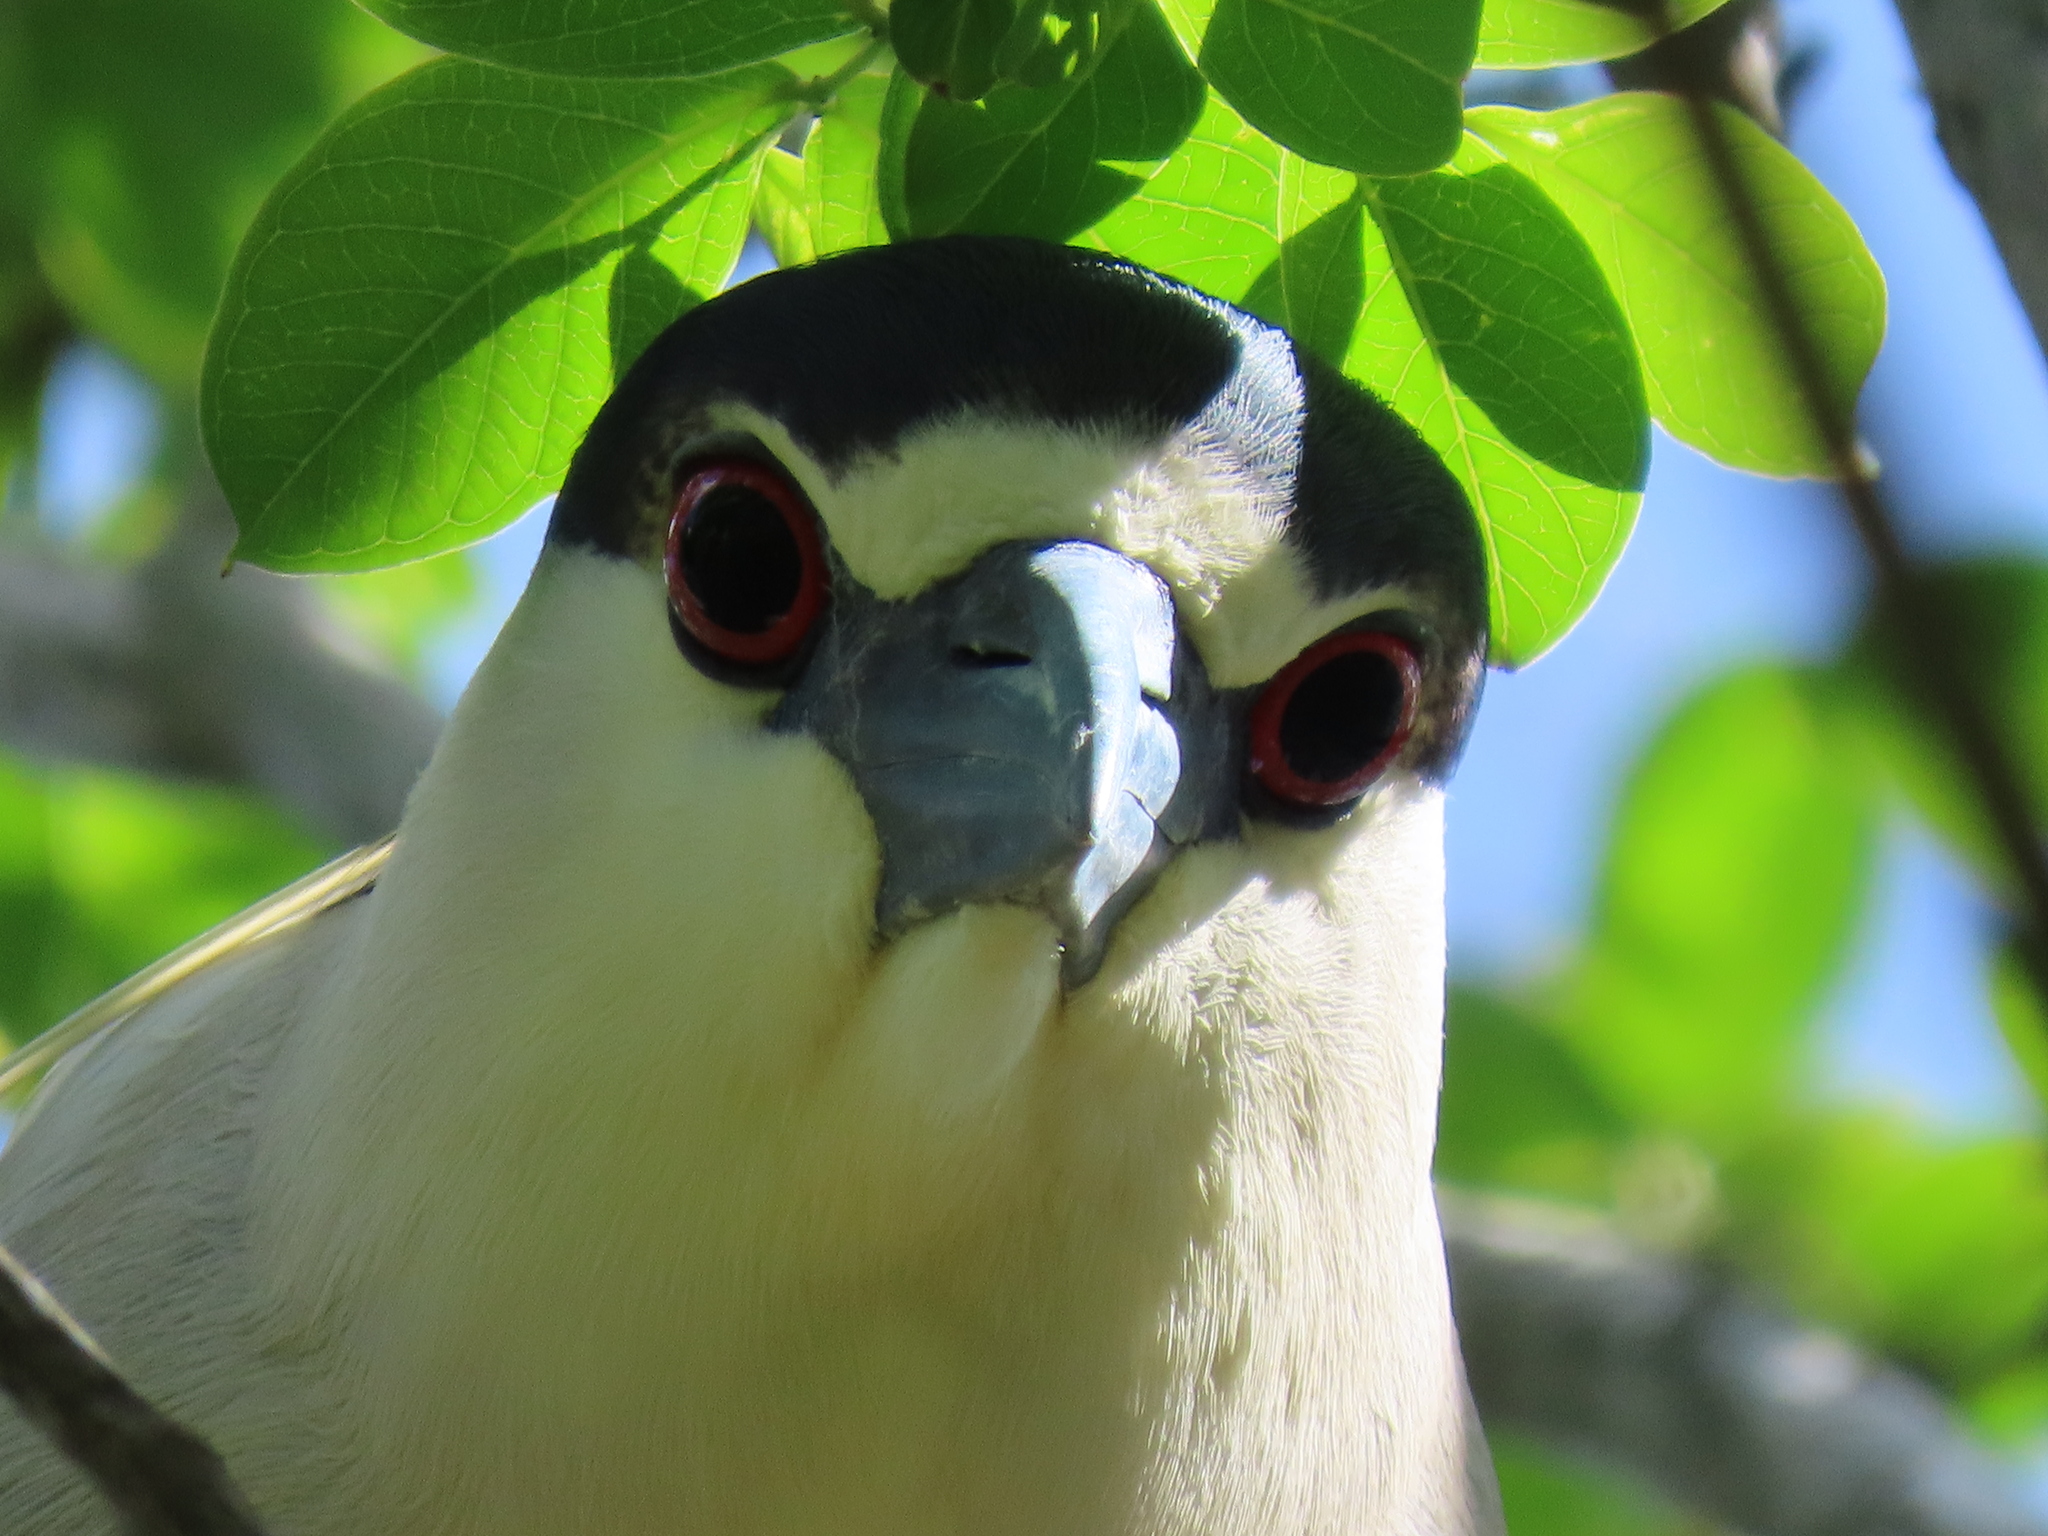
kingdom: Animalia
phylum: Chordata
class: Aves
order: Pelecaniformes
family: Ardeidae
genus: Nycticorax
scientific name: Nycticorax nycticorax
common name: Black-crowned night heron
